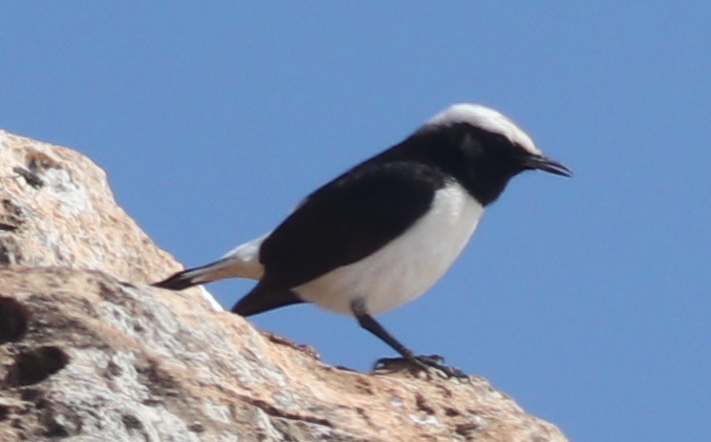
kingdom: Animalia
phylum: Chordata
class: Aves
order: Passeriformes
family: Muscicapidae
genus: Oenanthe
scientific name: Oenanthe lugentoides
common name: Arabian wheatear
